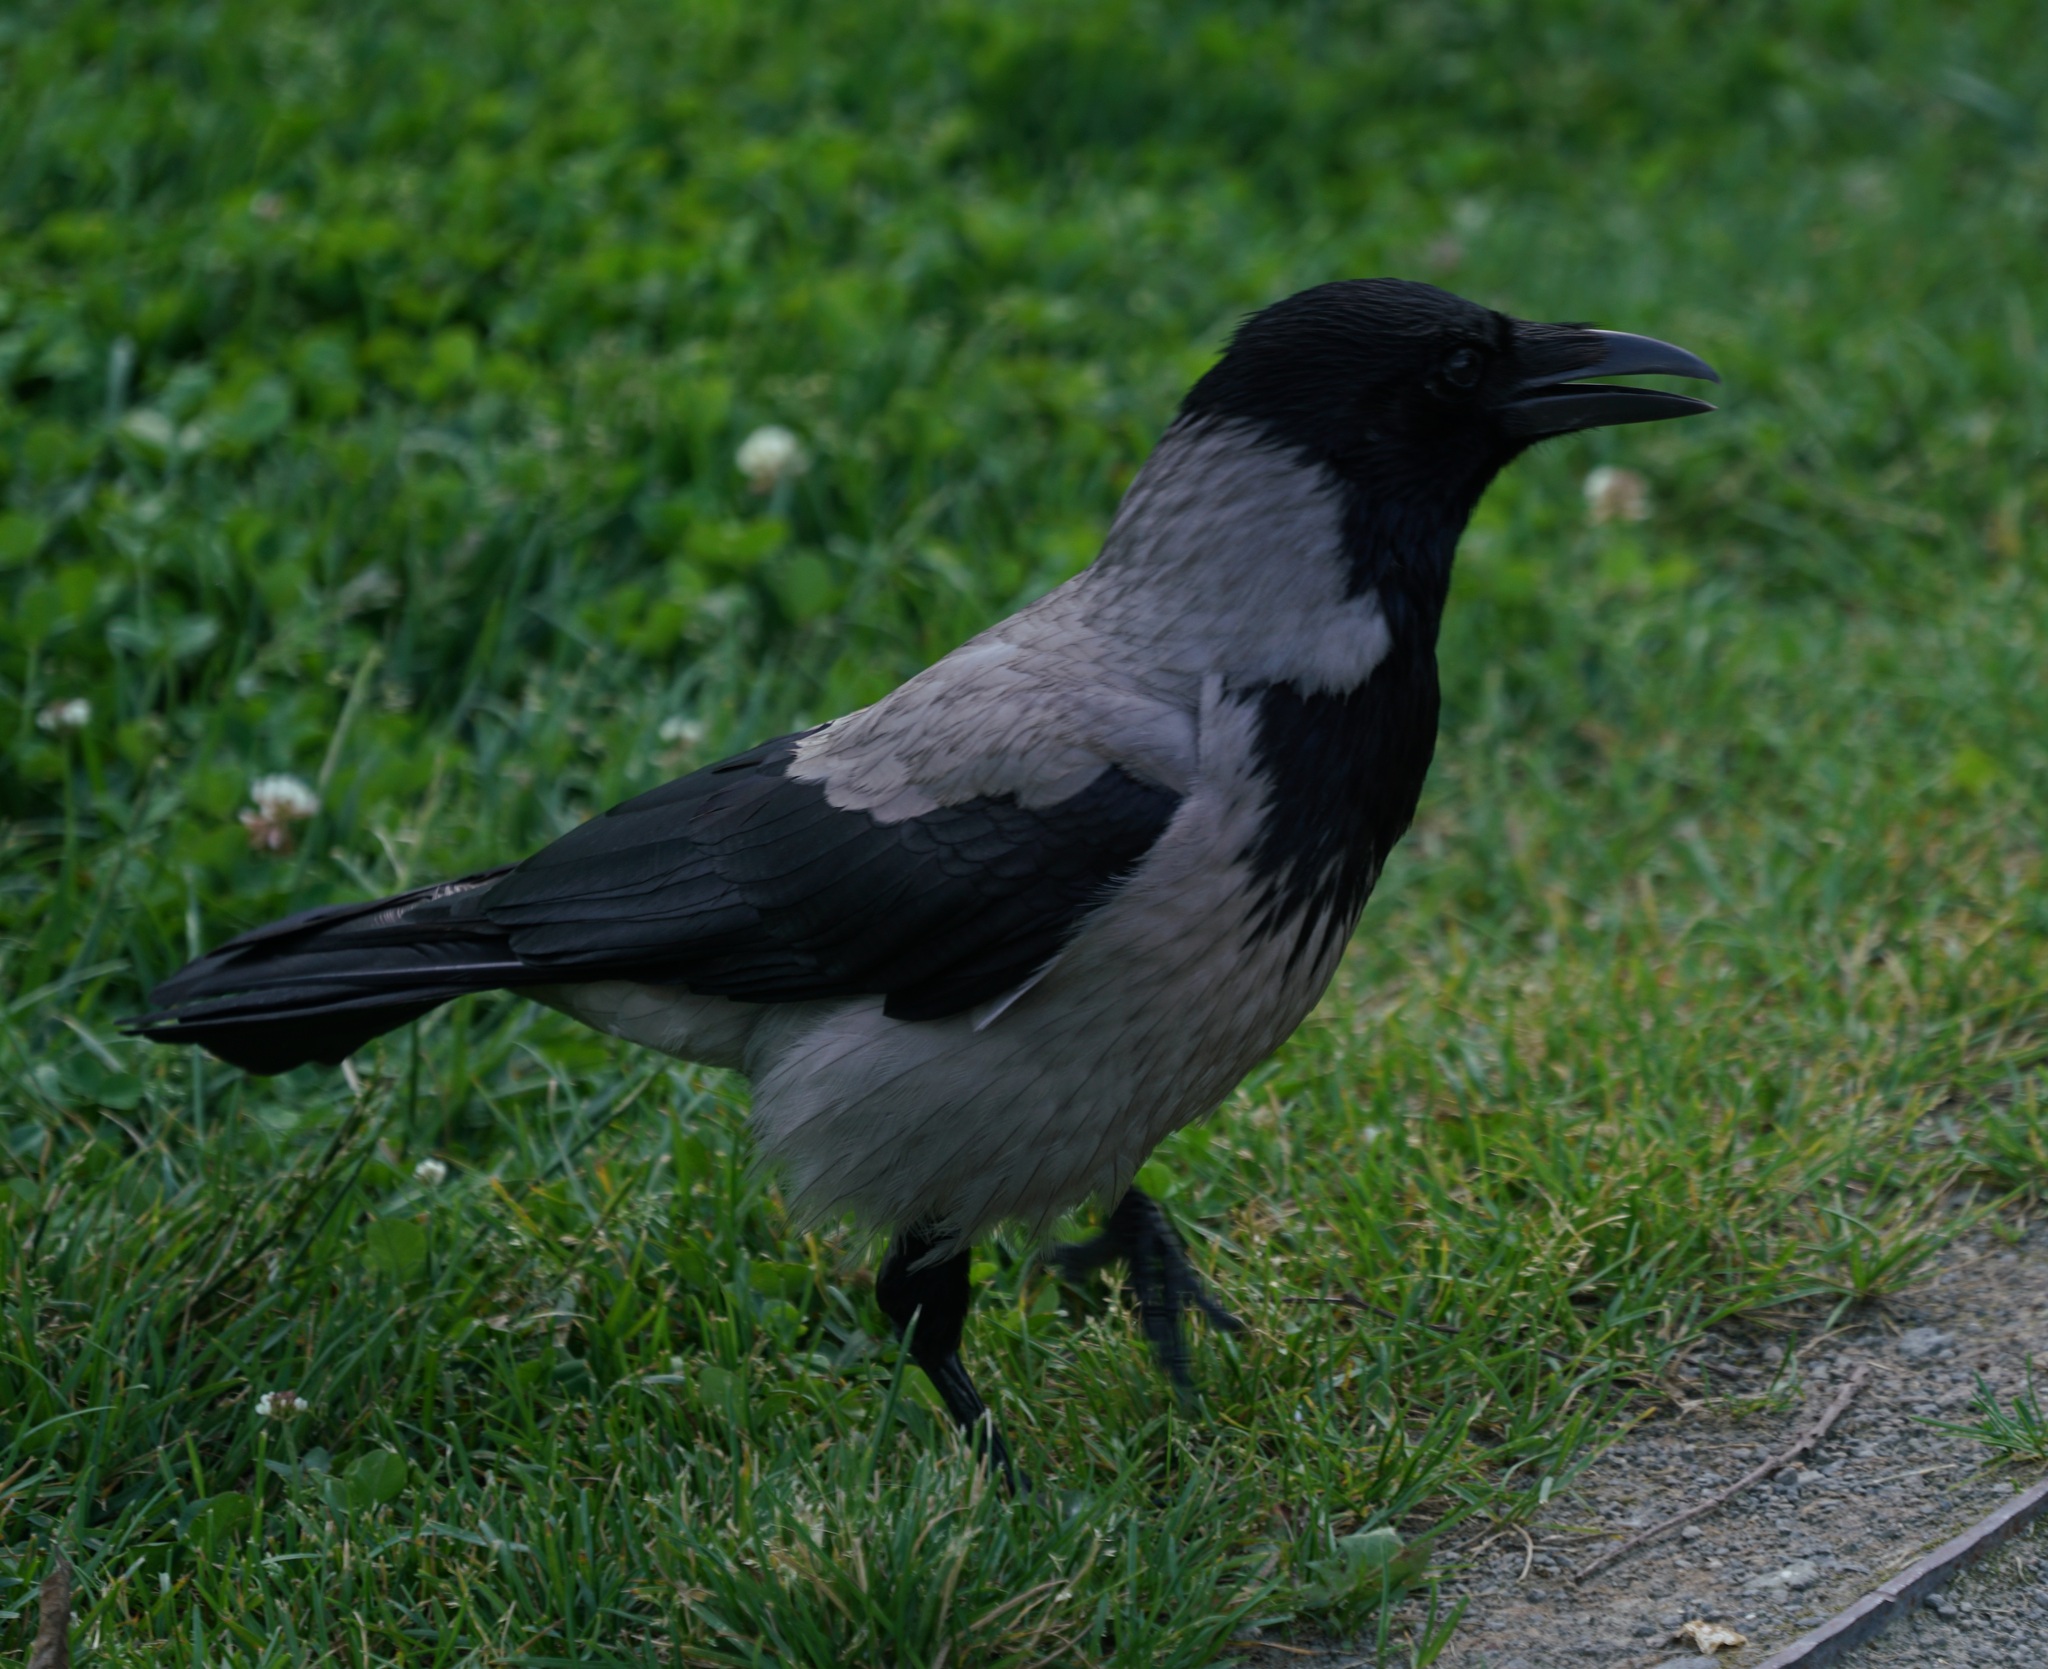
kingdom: Animalia
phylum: Chordata
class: Aves
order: Passeriformes
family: Corvidae
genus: Corvus
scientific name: Corvus cornix
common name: Hooded crow
